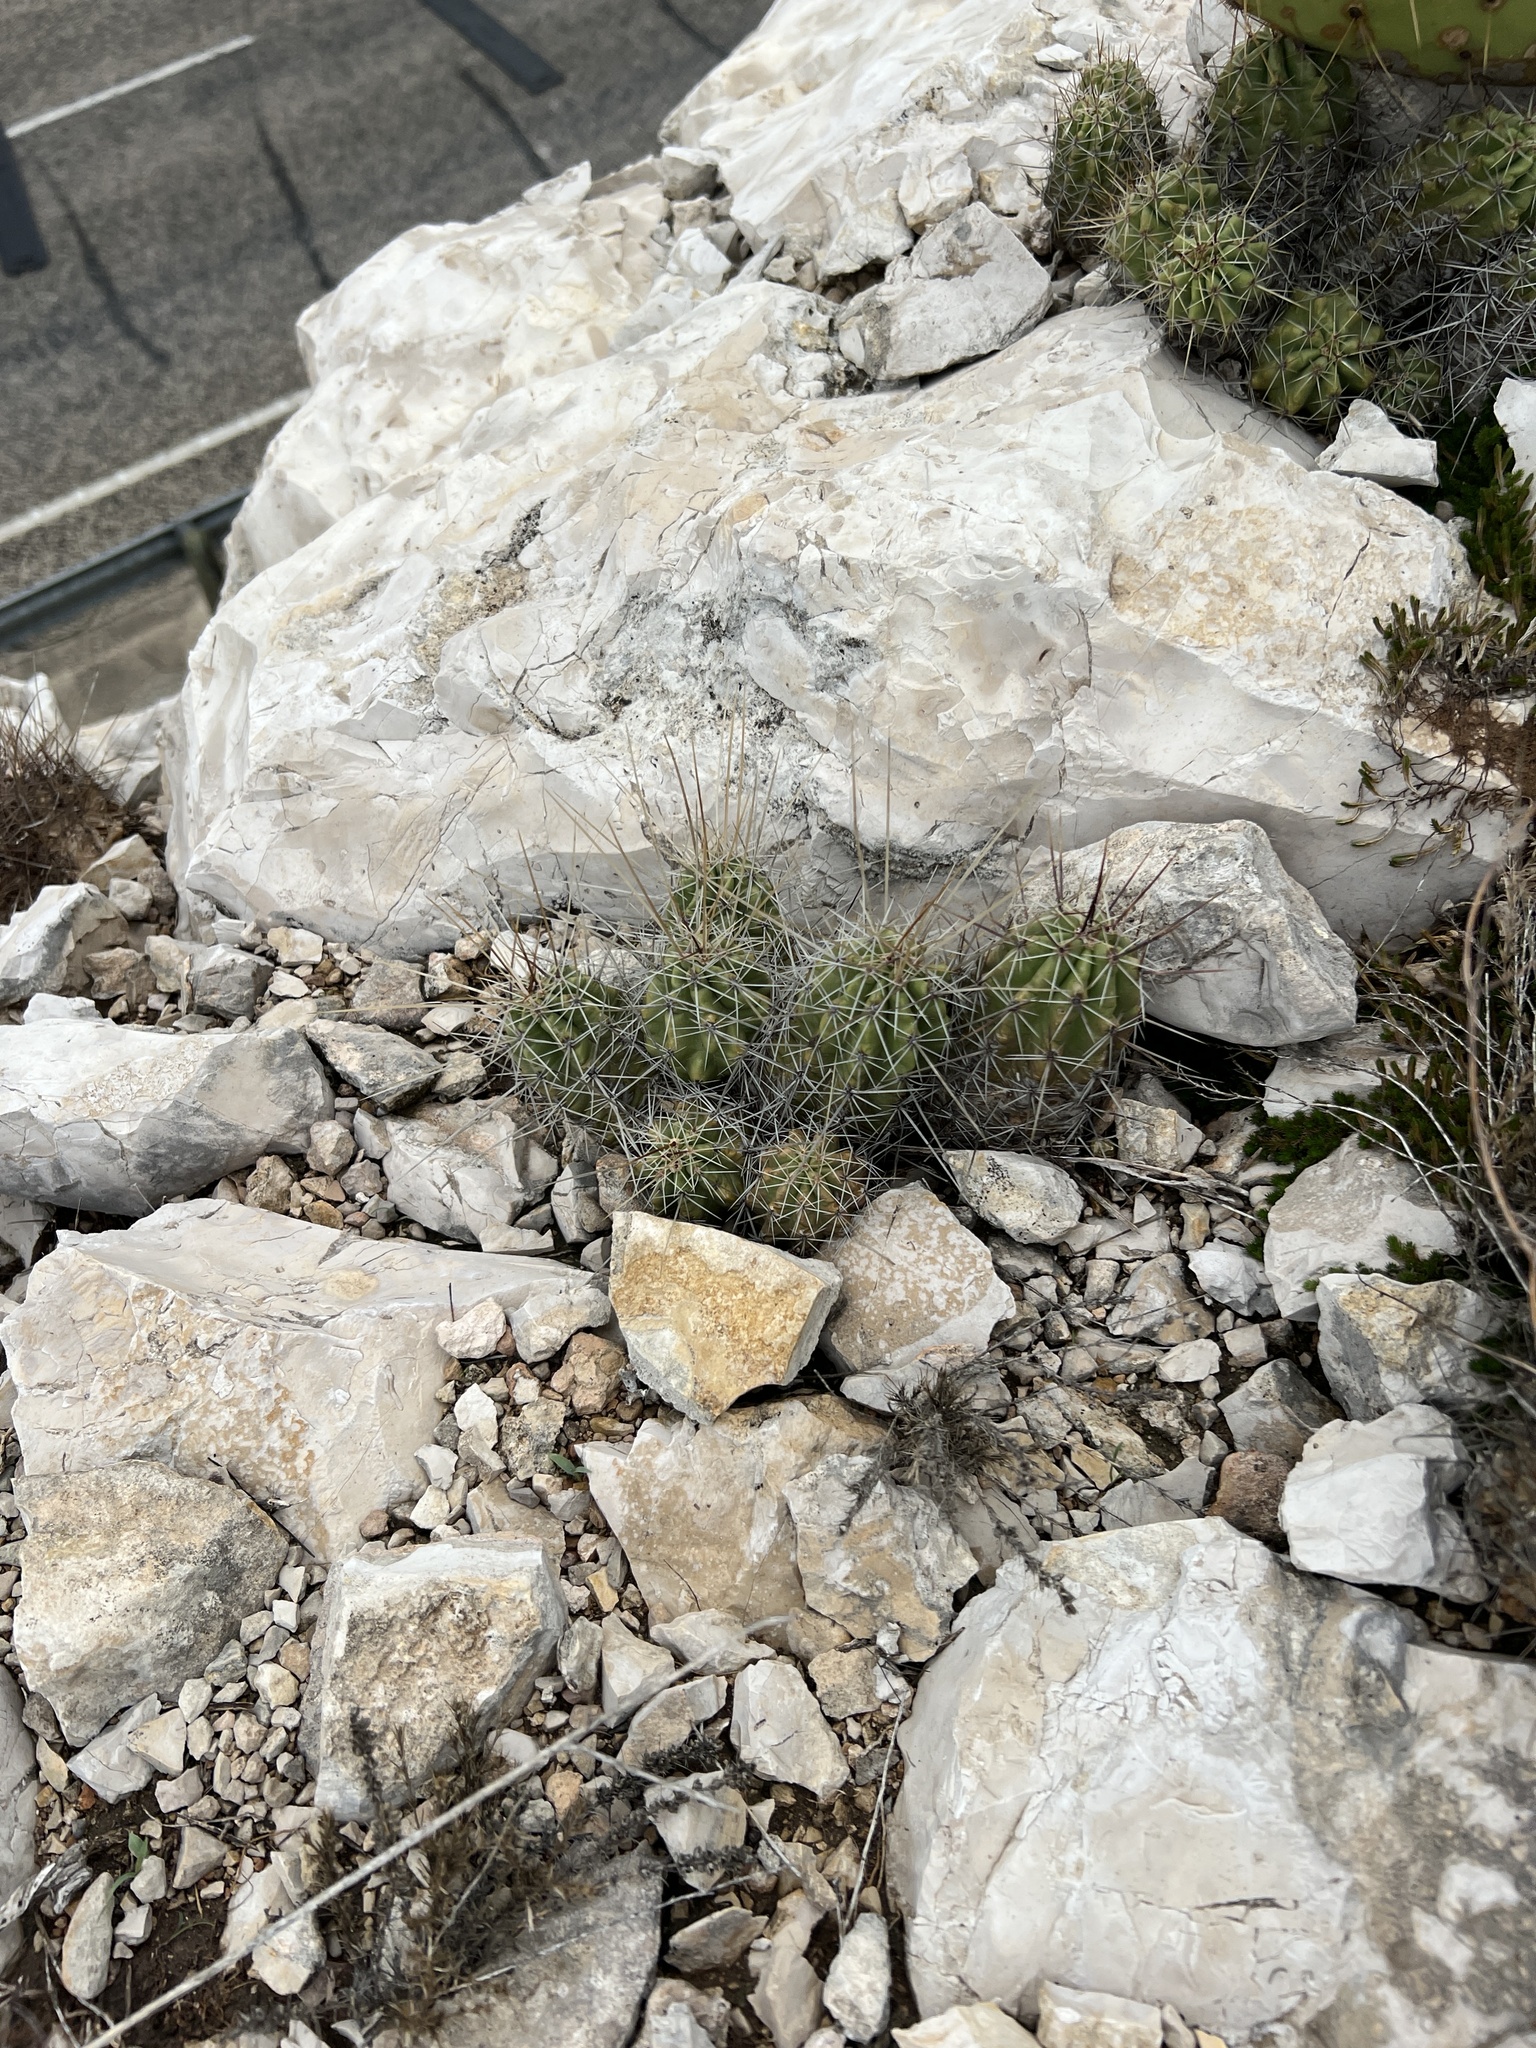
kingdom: Plantae
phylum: Tracheophyta
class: Magnoliopsida
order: Caryophyllales
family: Cactaceae
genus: Echinocereus
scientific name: Echinocereus enneacanthus
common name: Pitaya
